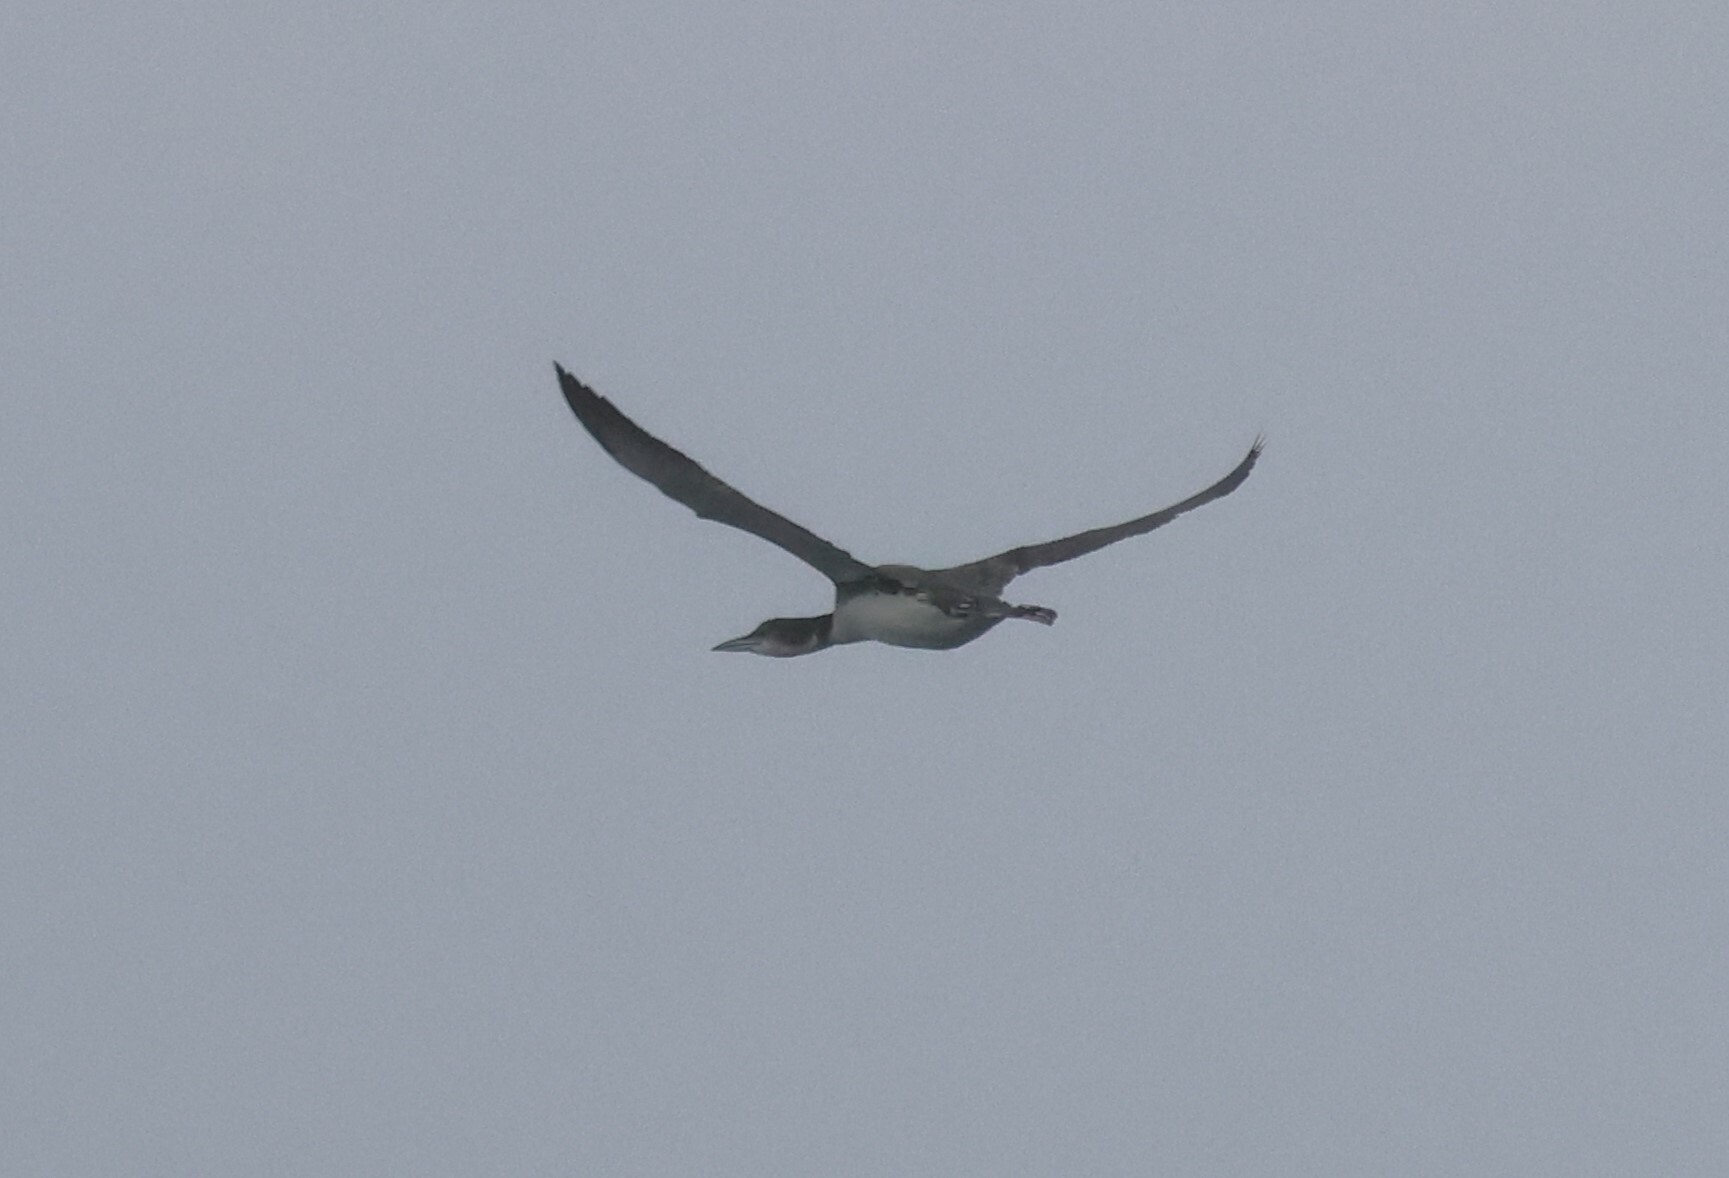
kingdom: Animalia
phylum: Chordata
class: Aves
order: Gaviiformes
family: Gaviidae
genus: Gavia
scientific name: Gavia immer
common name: Common loon
